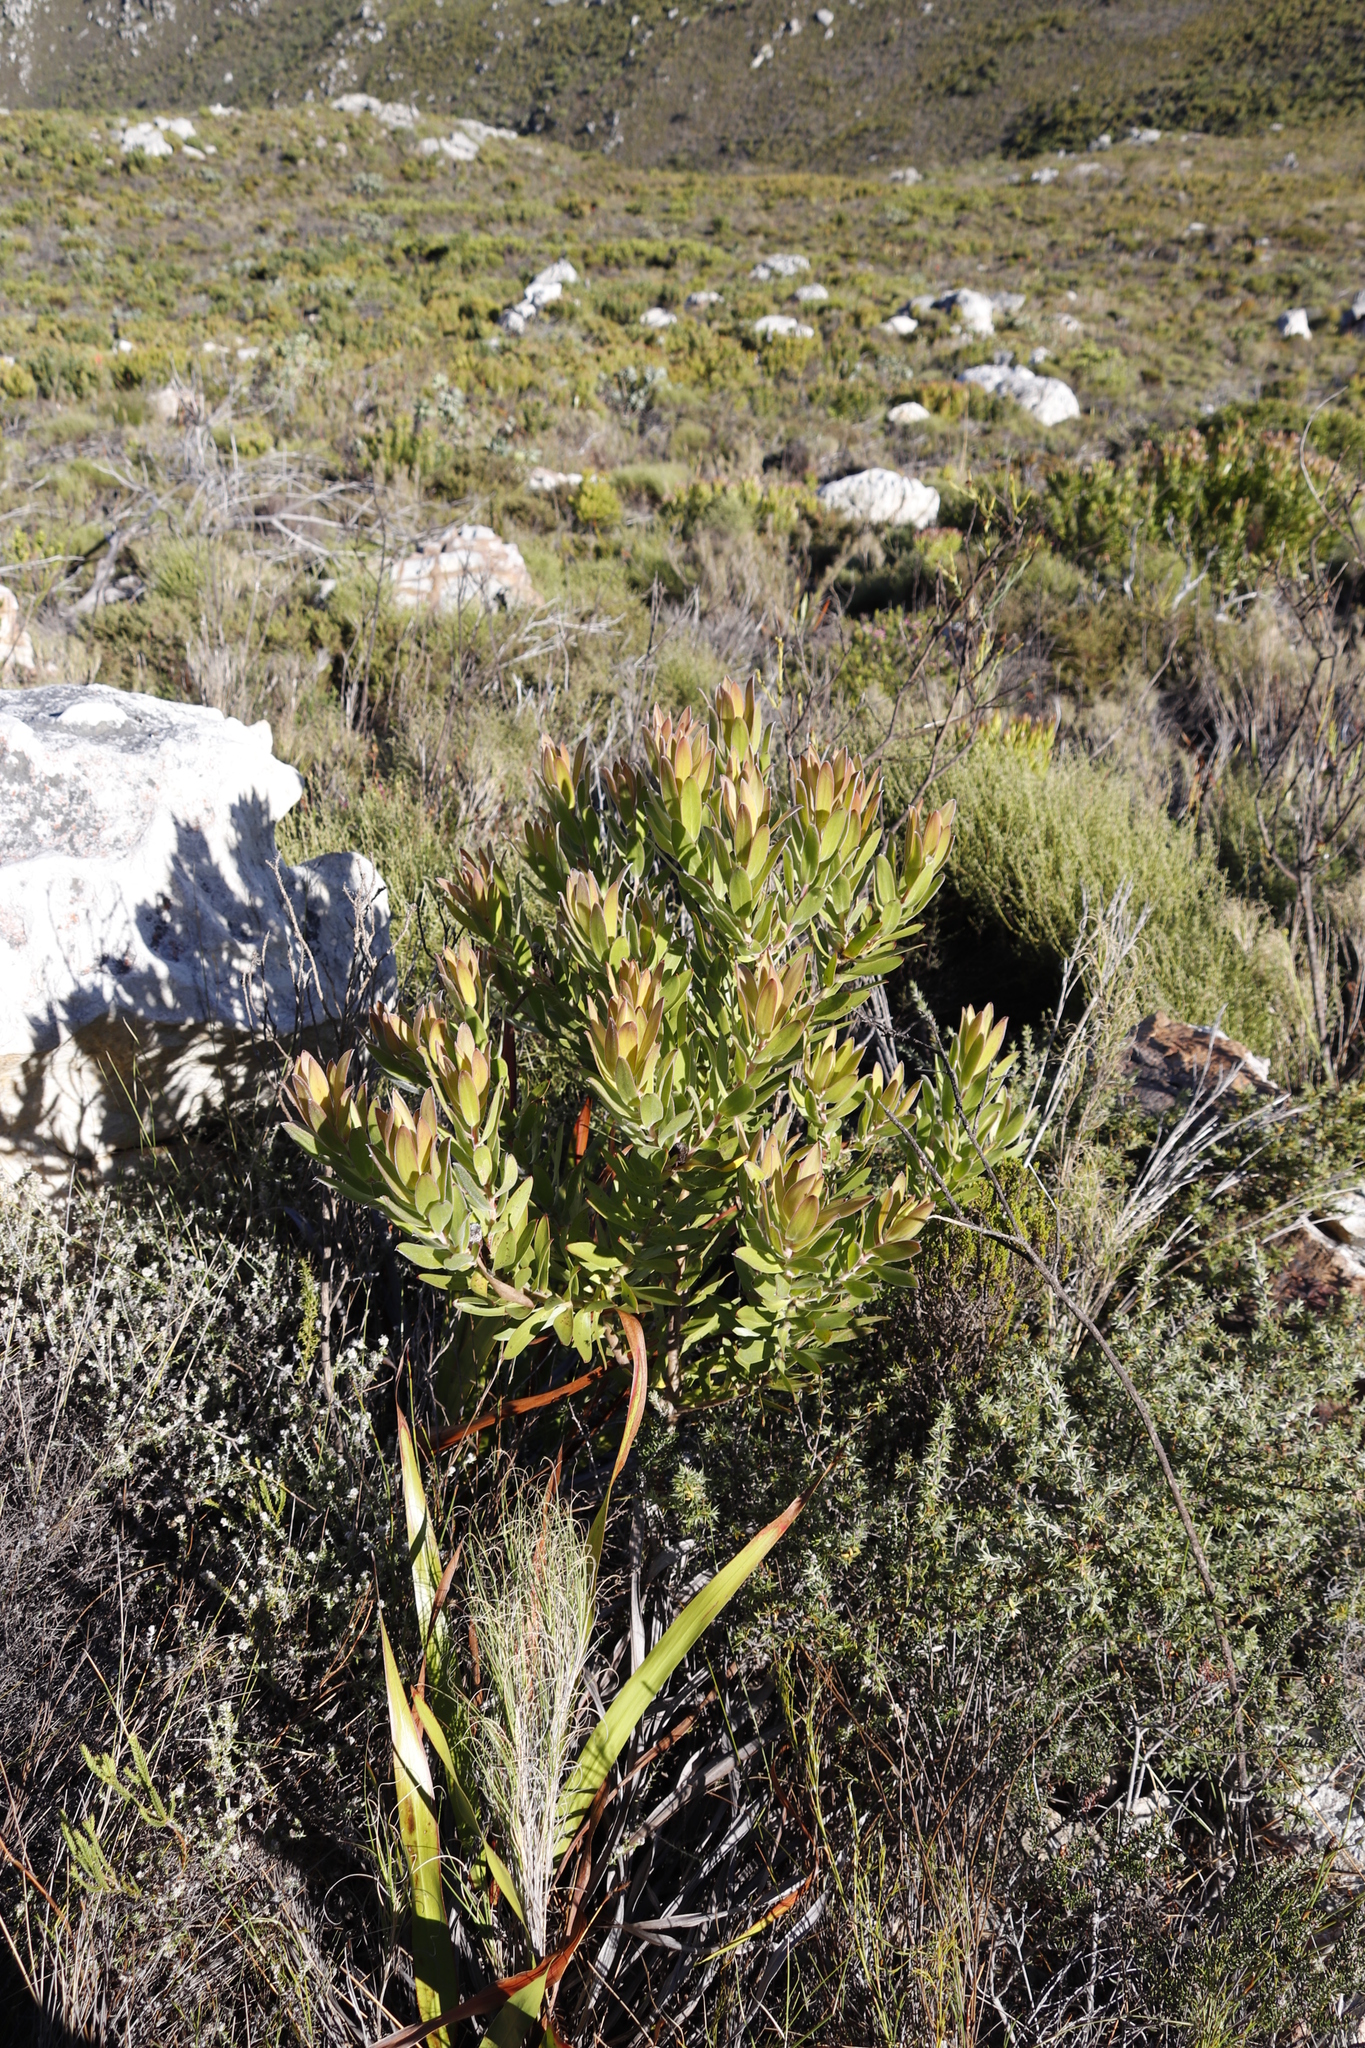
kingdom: Plantae
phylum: Tracheophyta
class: Magnoliopsida
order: Proteales
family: Proteaceae
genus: Leucadendron
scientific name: Leucadendron laureolum
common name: Golden sunshinebush
